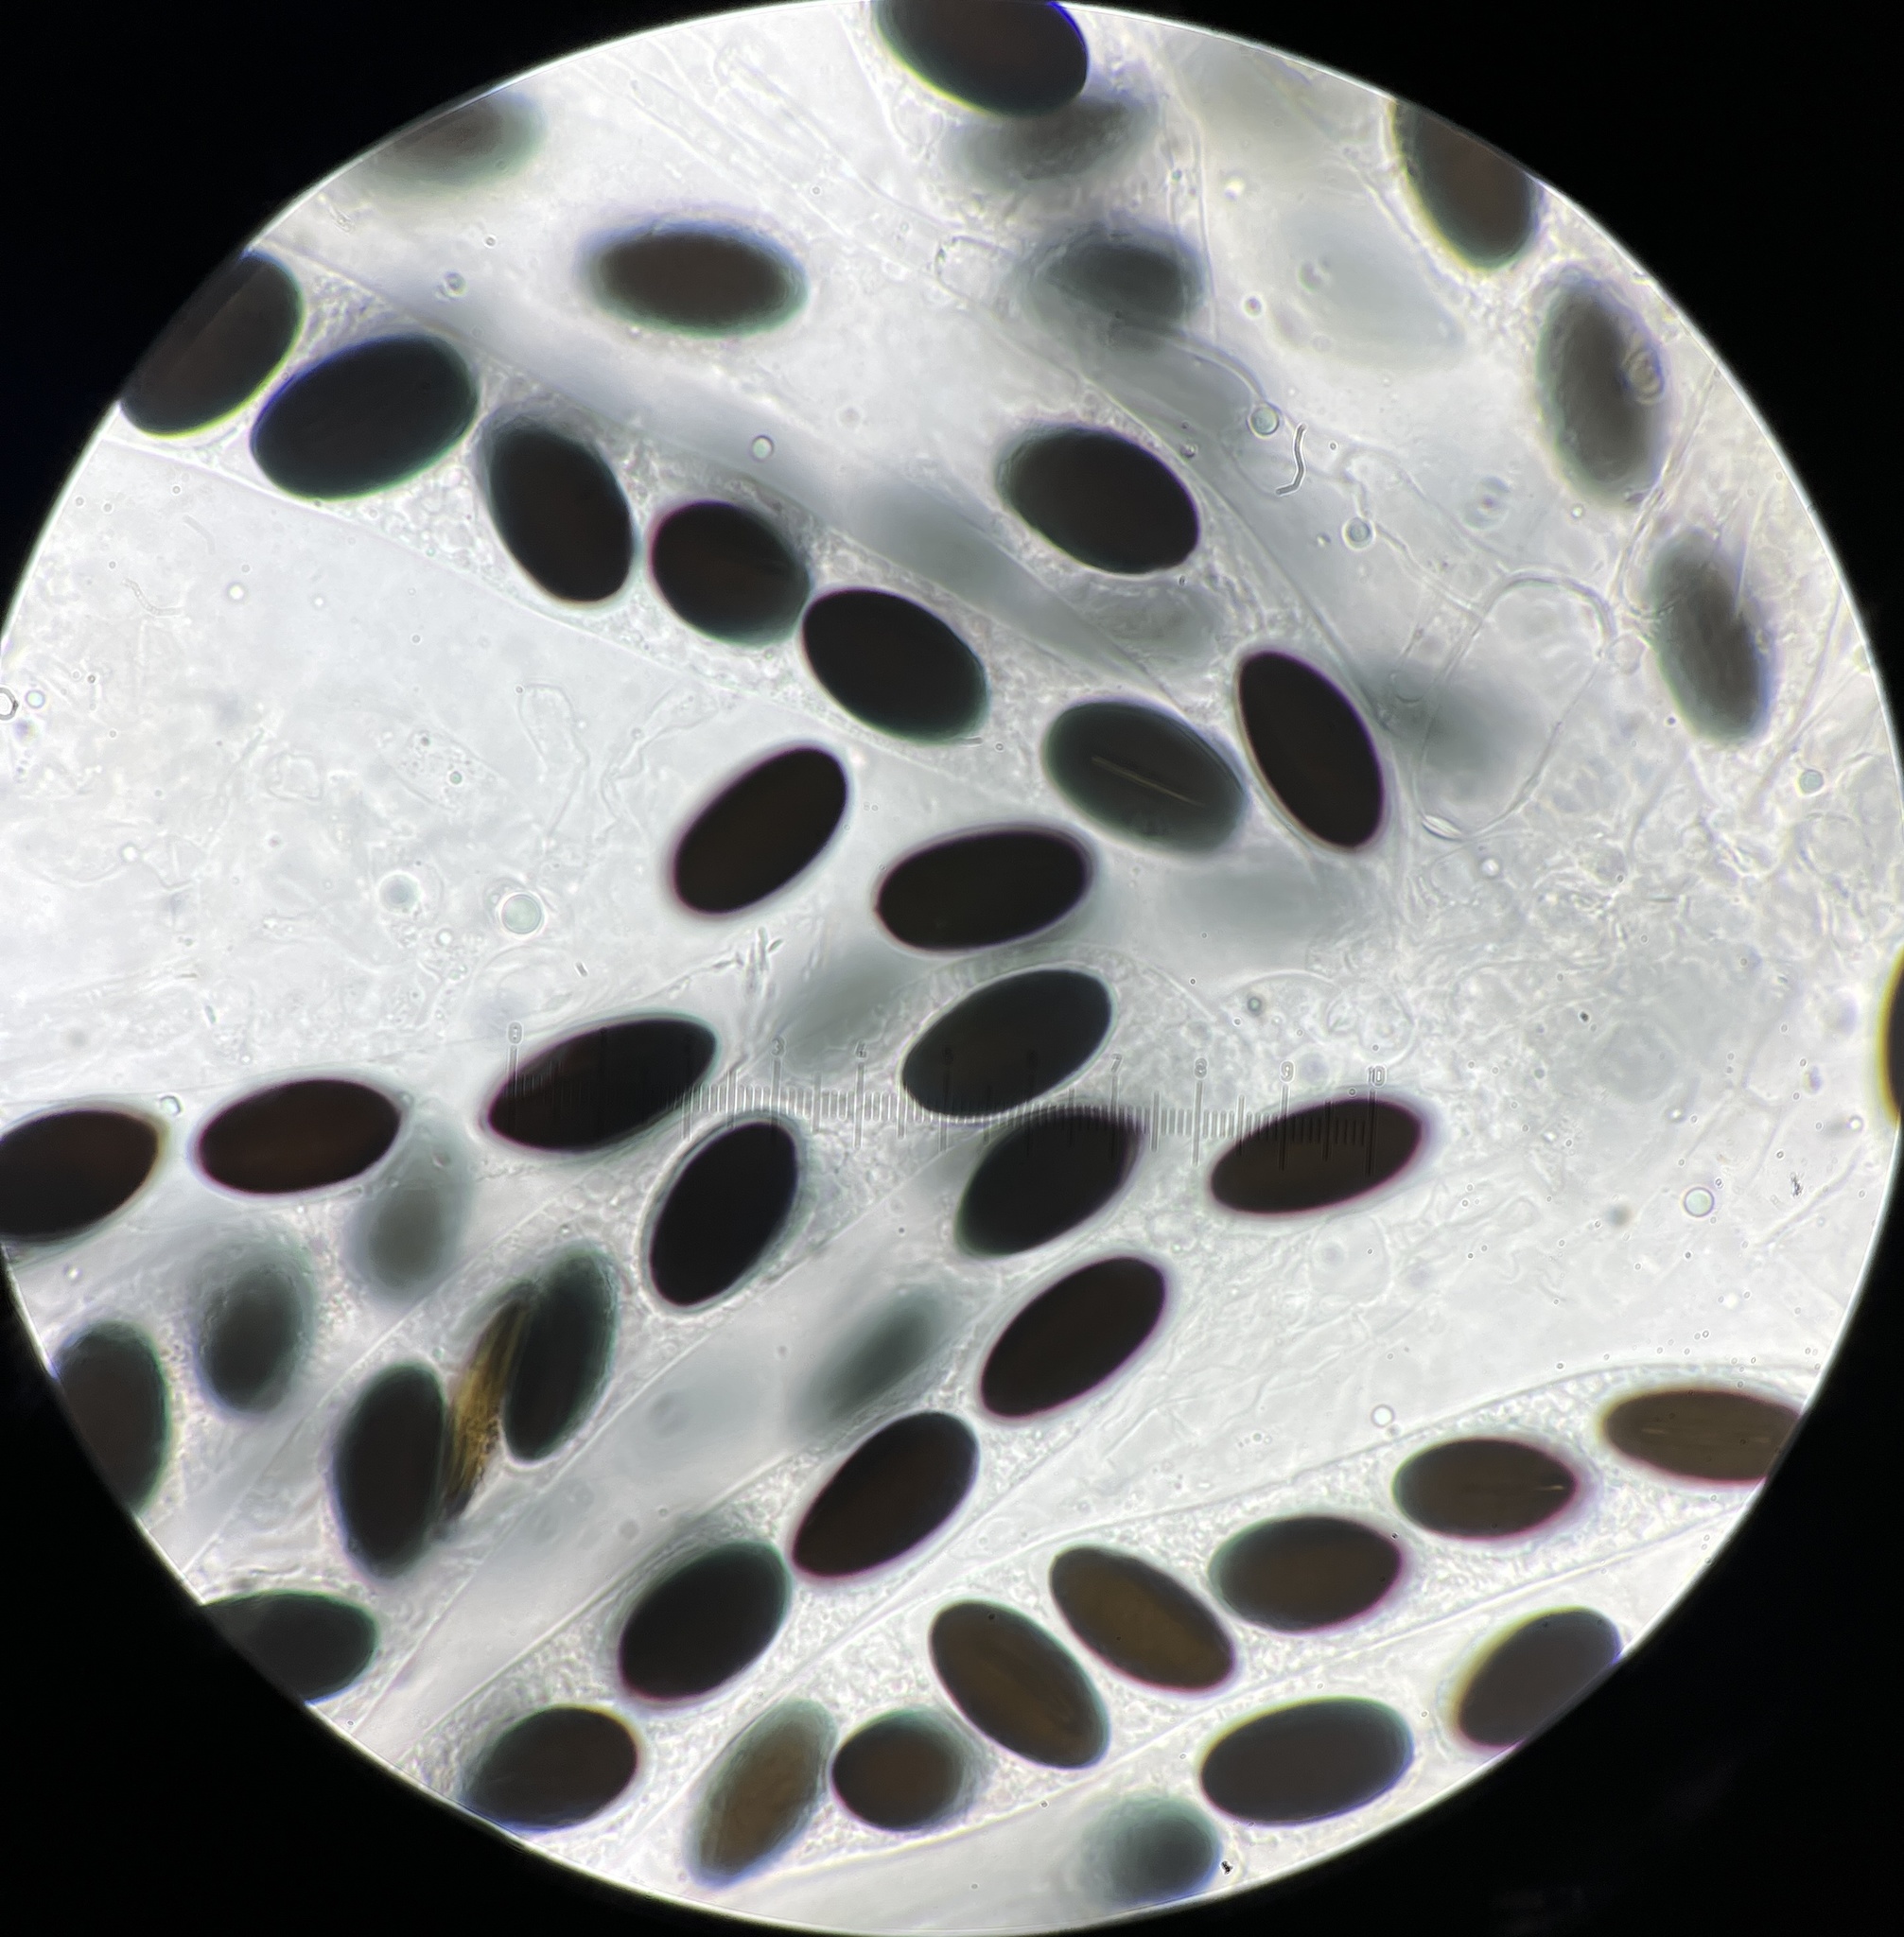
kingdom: Fungi
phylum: Ascomycota
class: Sordariomycetes
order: Xylariales
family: Xylariaceae
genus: Hypocopra
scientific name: Hypocopra brefeldii
